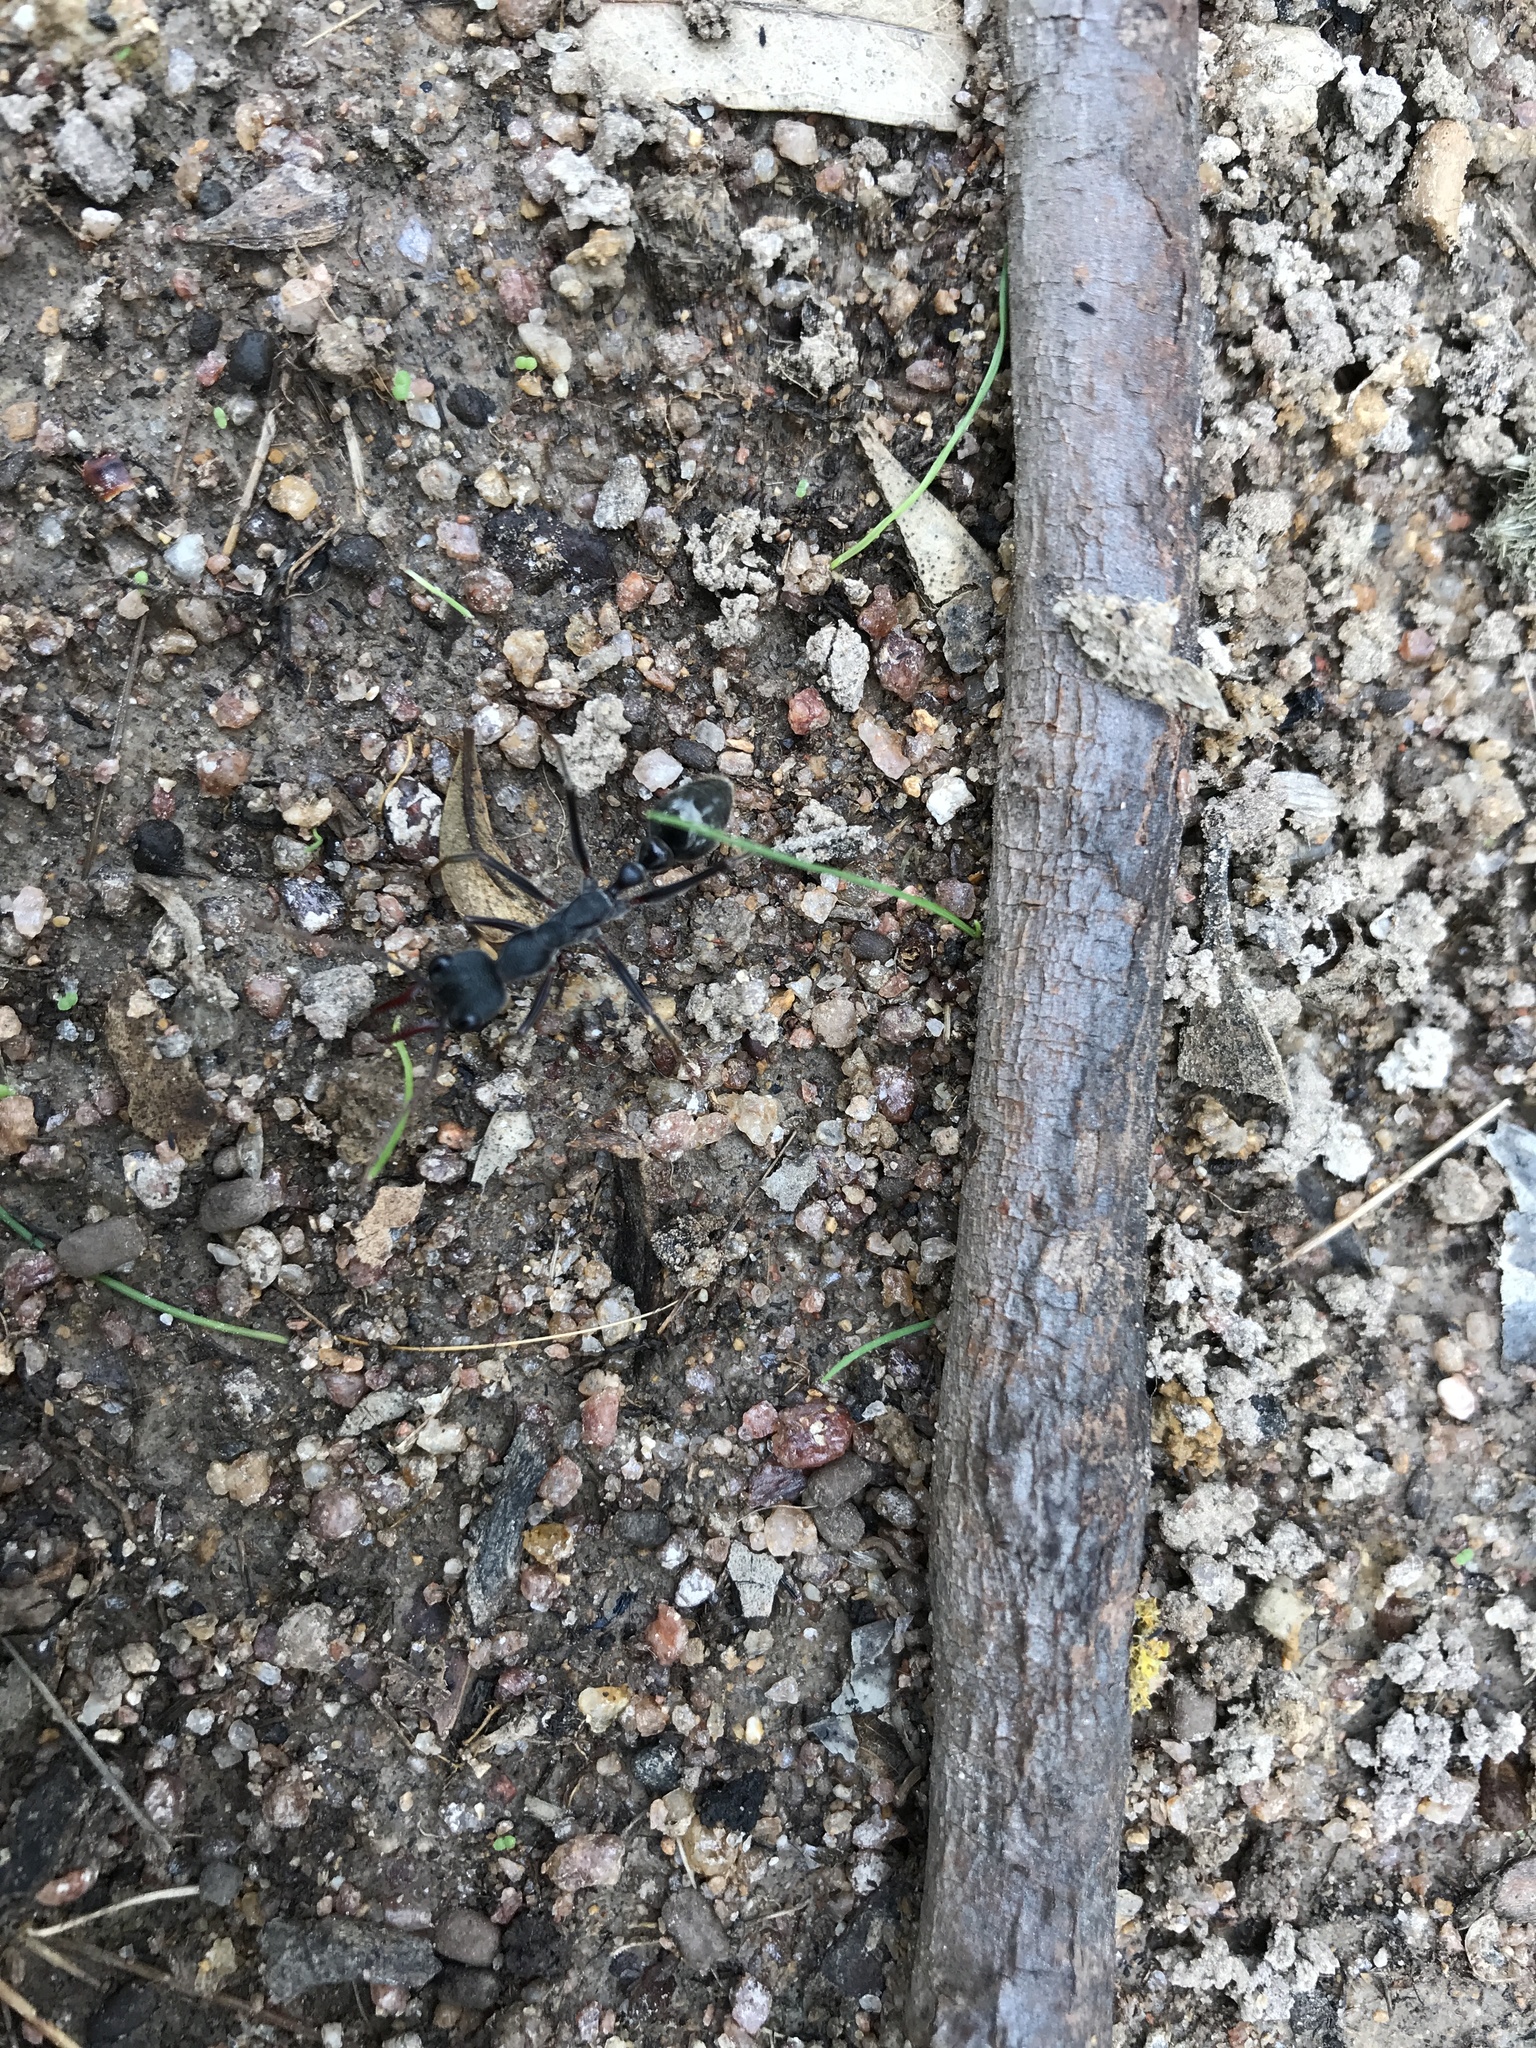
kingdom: Animalia
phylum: Arthropoda
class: Insecta
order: Hymenoptera
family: Formicidae
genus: Myrmecia
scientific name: Myrmecia pyriformis
